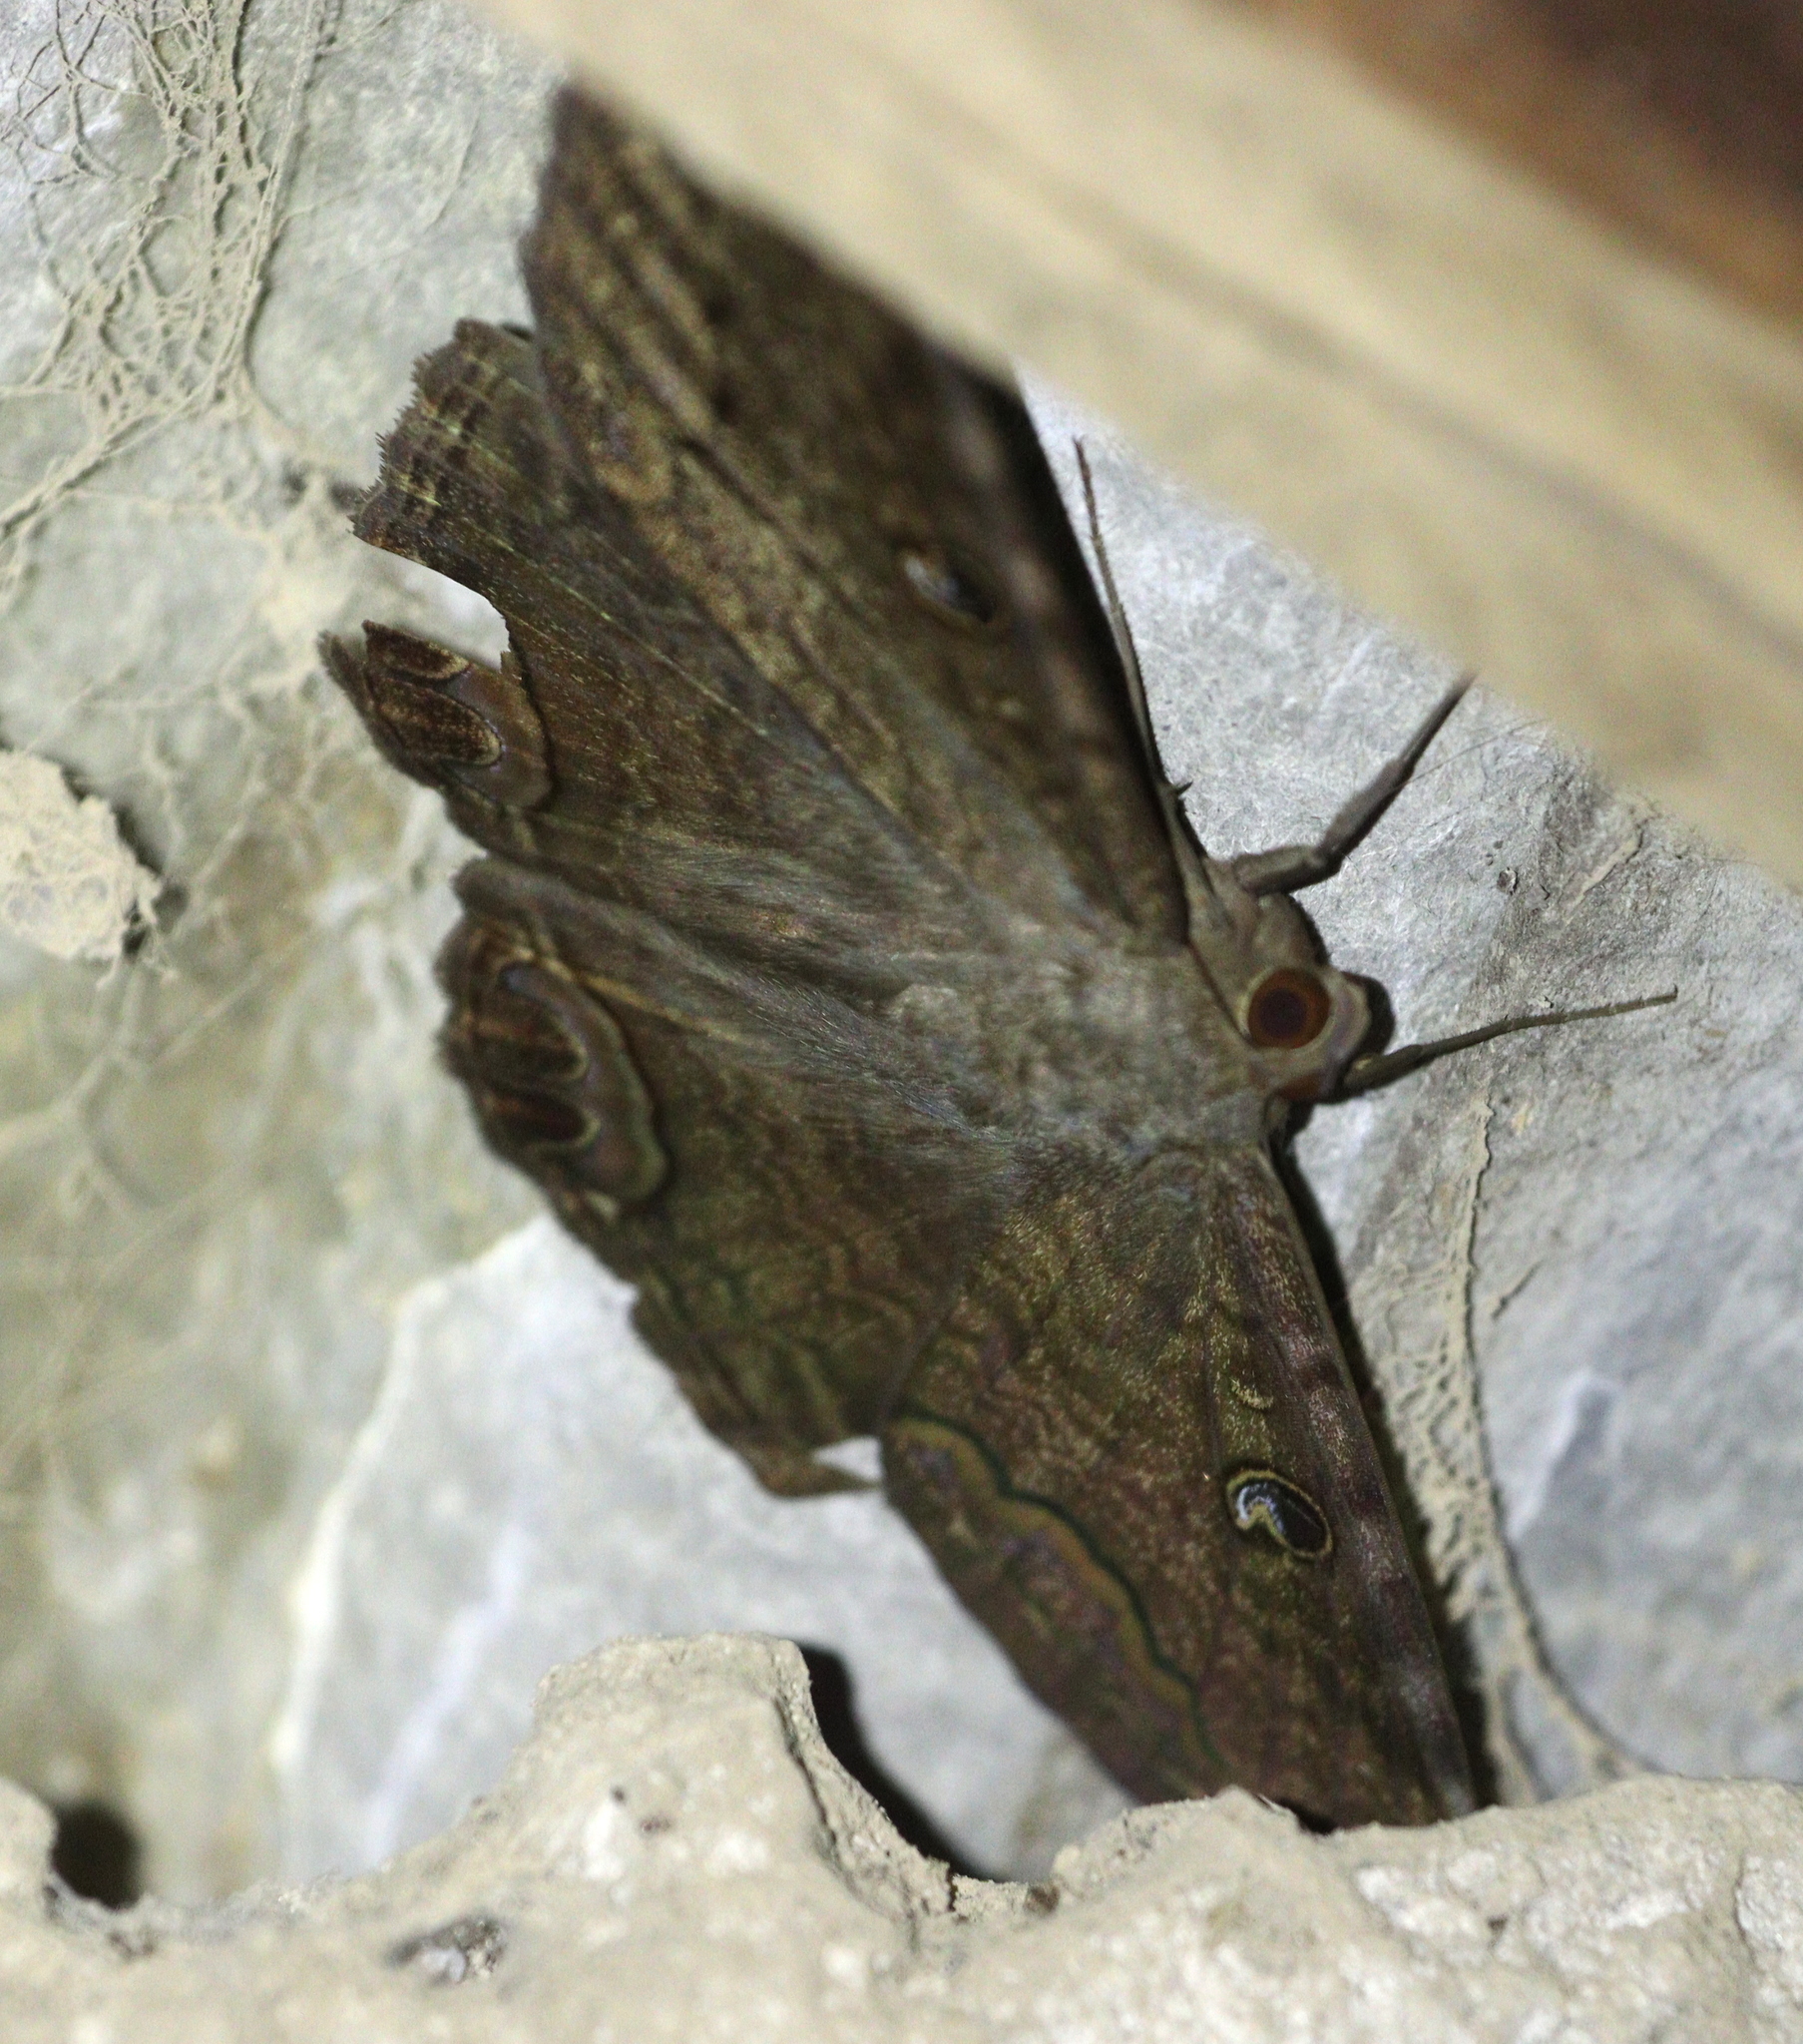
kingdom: Animalia
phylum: Arthropoda
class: Insecta
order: Lepidoptera
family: Erebidae
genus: Ascalapha
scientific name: Ascalapha odorata
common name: Black witch
